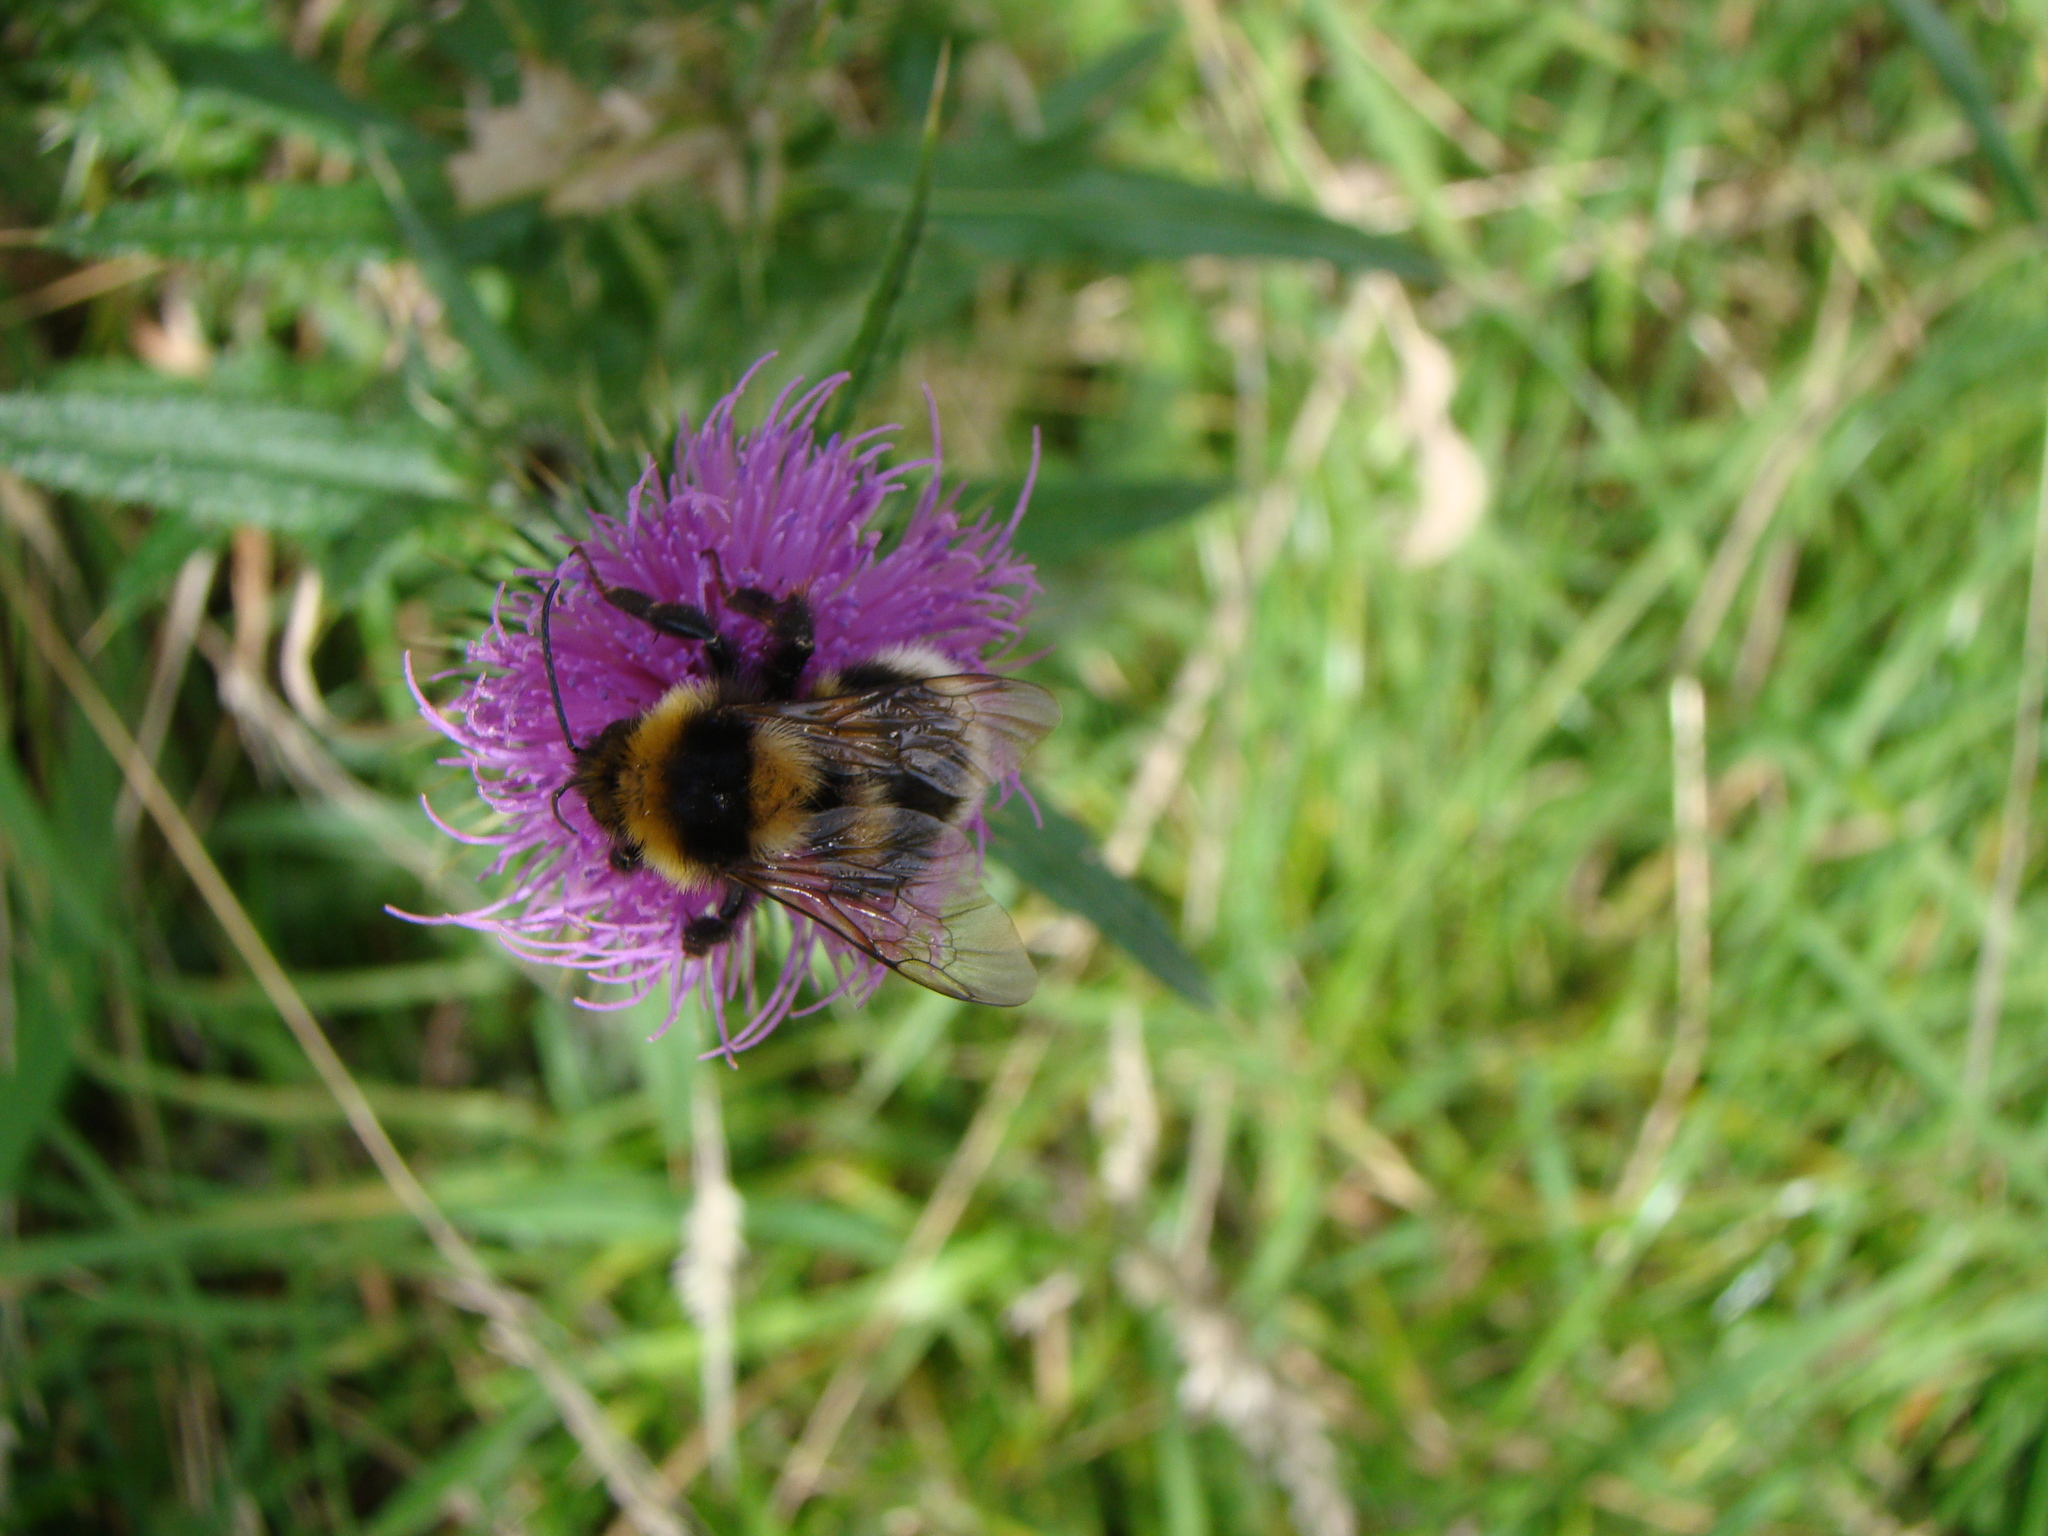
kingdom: Animalia
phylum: Arthropoda
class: Insecta
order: Hymenoptera
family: Apidae
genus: Megabombus
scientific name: Megabombus
